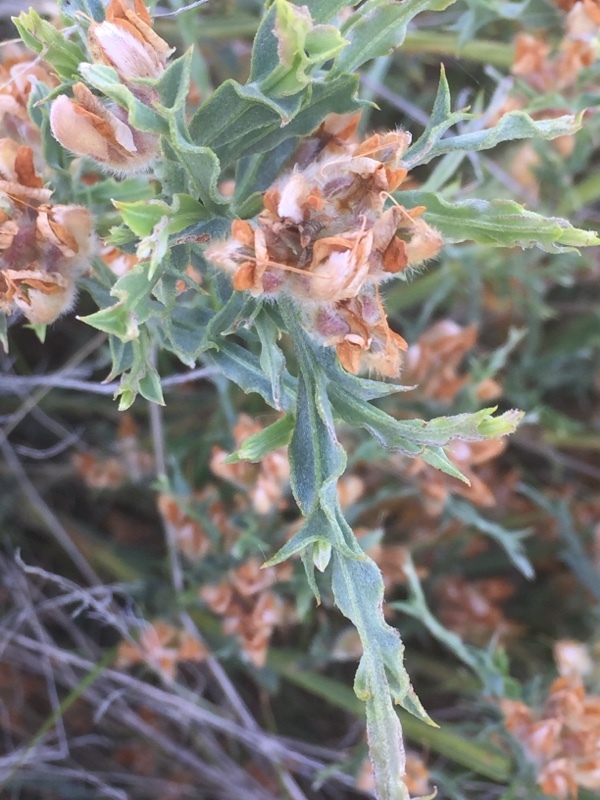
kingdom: Plantae
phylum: Tracheophyta
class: Magnoliopsida
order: Fabales
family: Fabaceae
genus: Genista
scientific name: Genista tridentata
